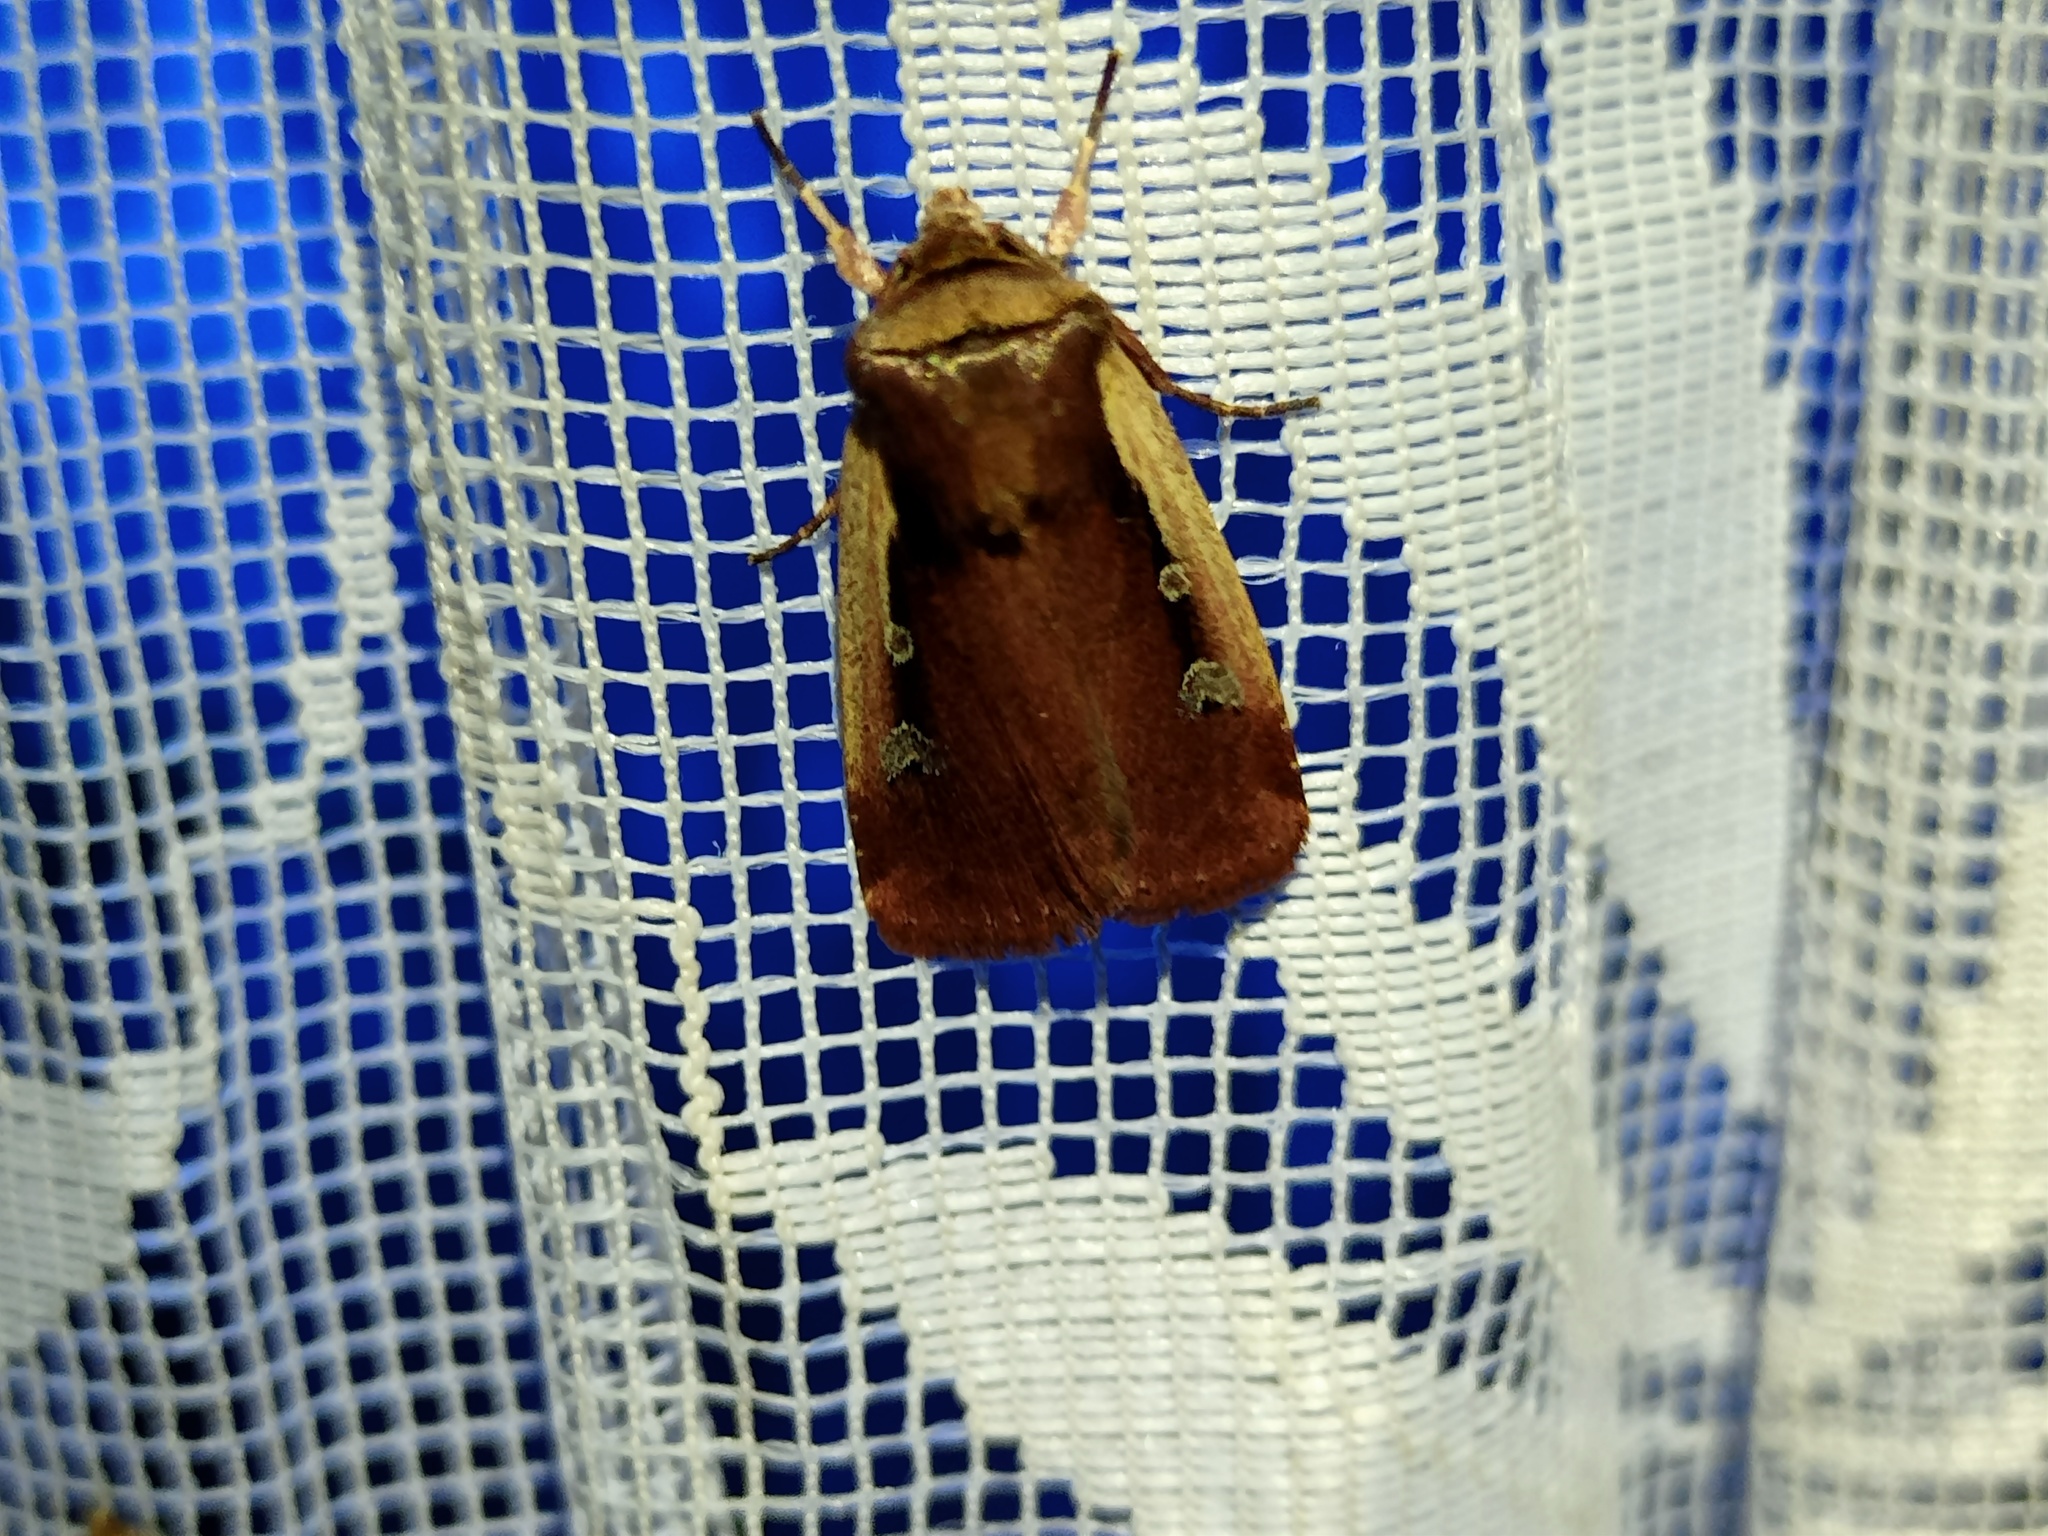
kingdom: Animalia
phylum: Arthropoda
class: Insecta
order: Lepidoptera
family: Noctuidae
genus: Ochropleura
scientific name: Ochropleura plecta
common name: Flame shoulder
